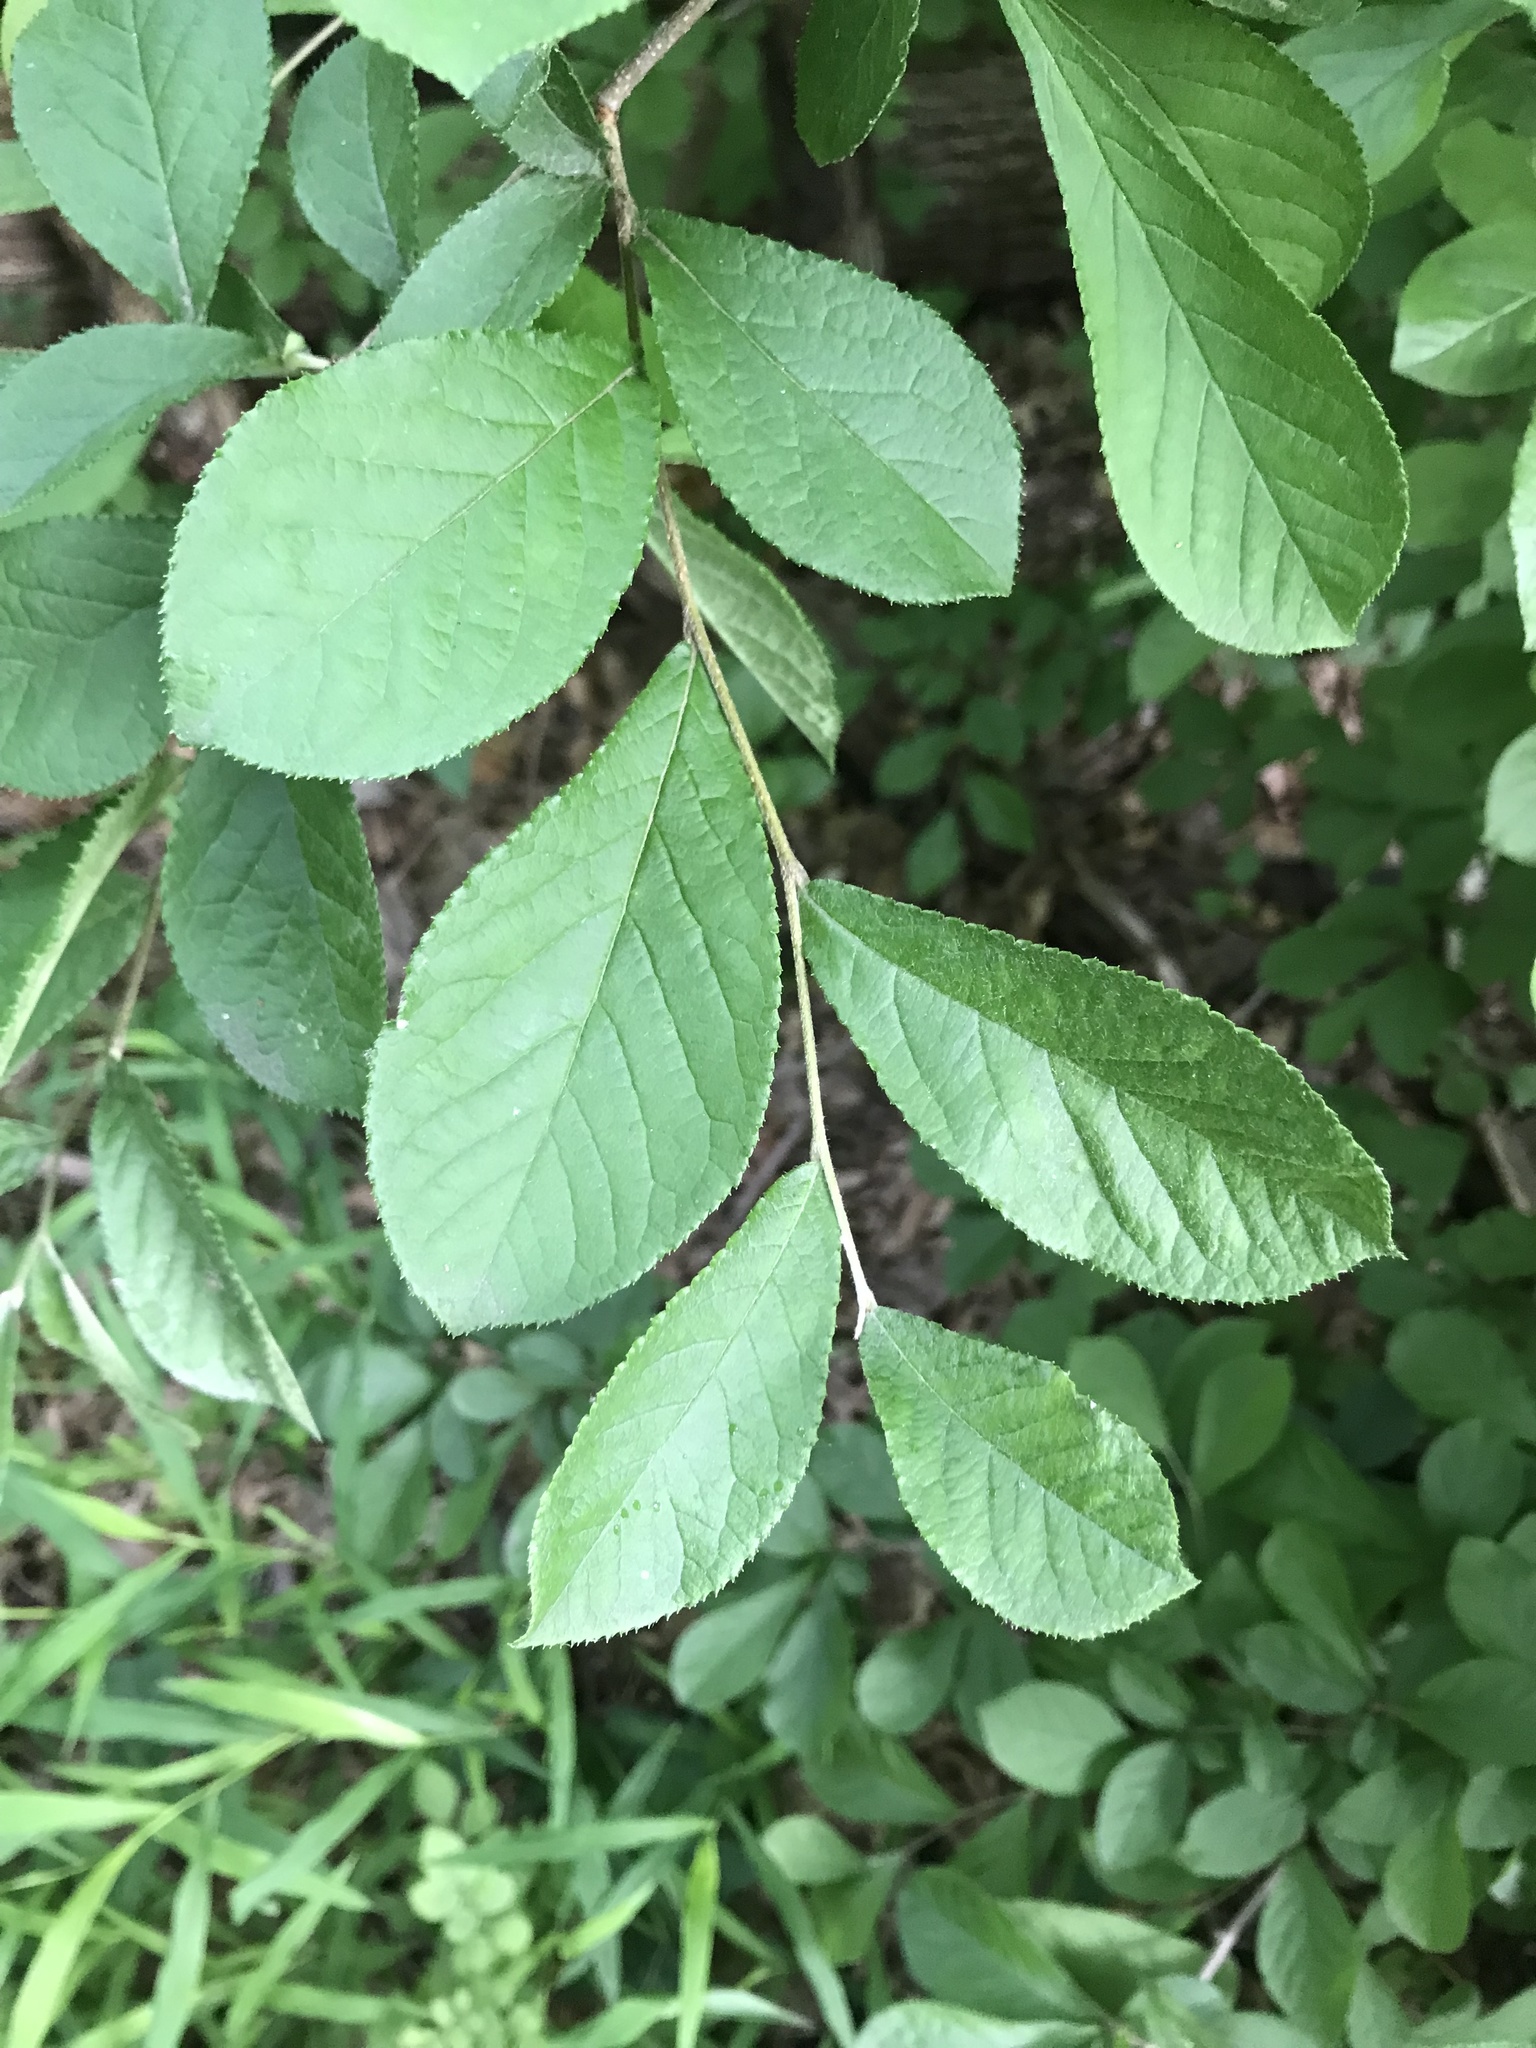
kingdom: Plantae
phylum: Tracheophyta
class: Magnoliopsida
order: Rosales
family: Rosaceae
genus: Pourthiaea
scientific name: Pourthiaea villosa
